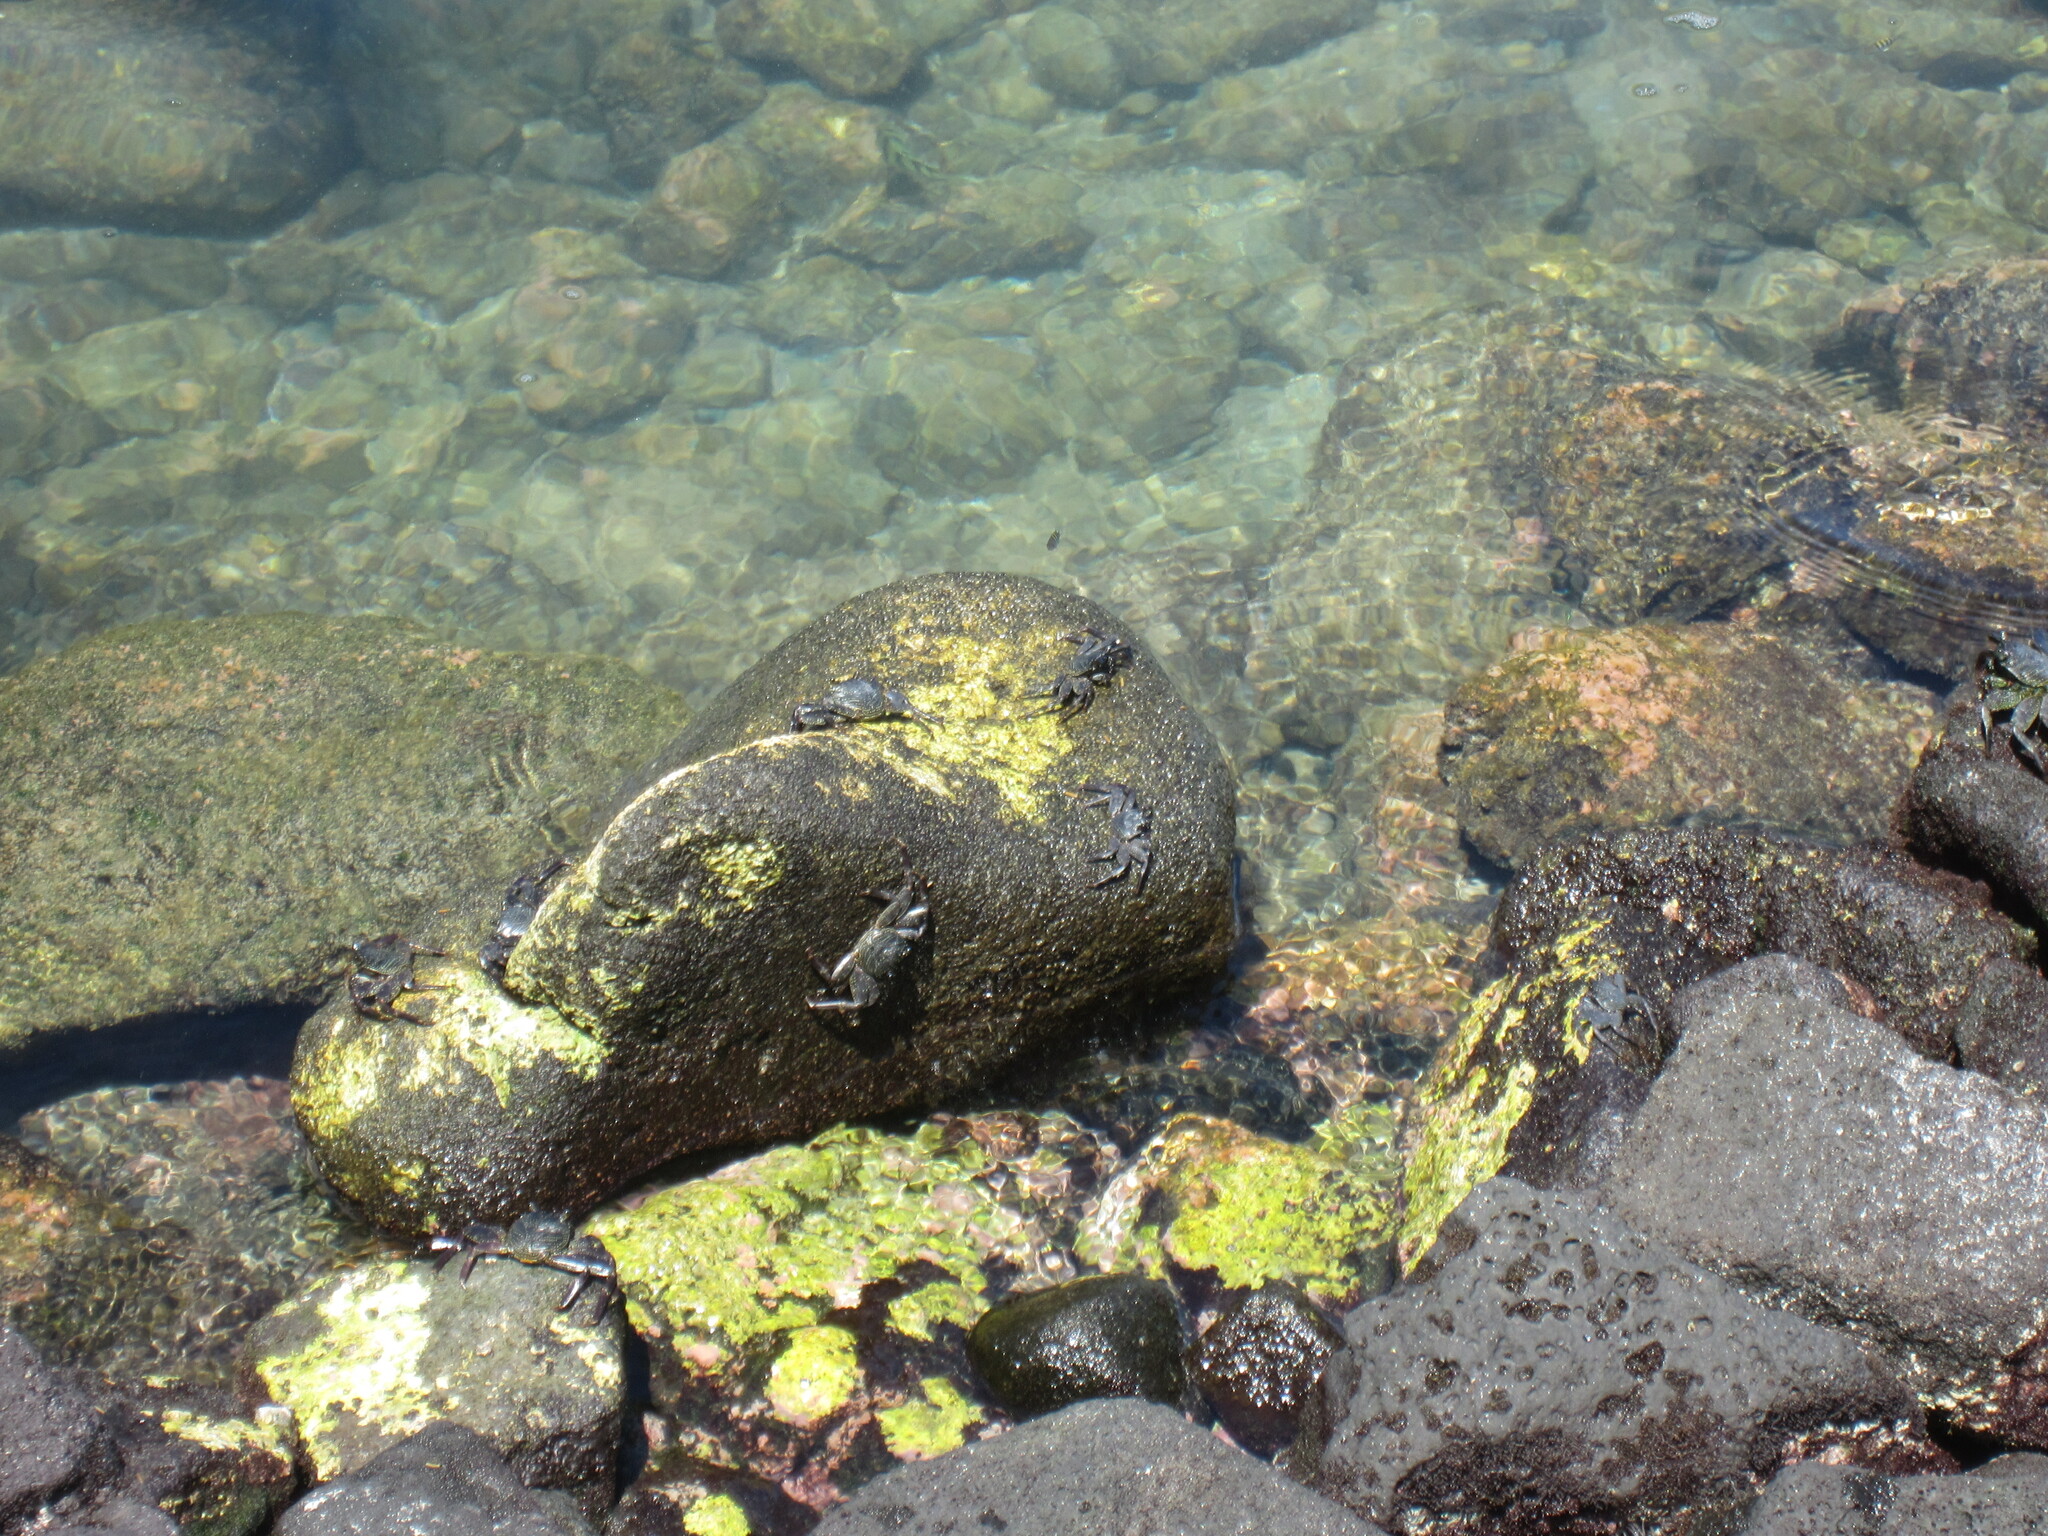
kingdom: Animalia
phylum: Arthropoda
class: Malacostraca
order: Decapoda
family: Grapsidae
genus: Grapsus
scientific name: Grapsus tenuicrustatus
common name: Natal lightfoot crab
